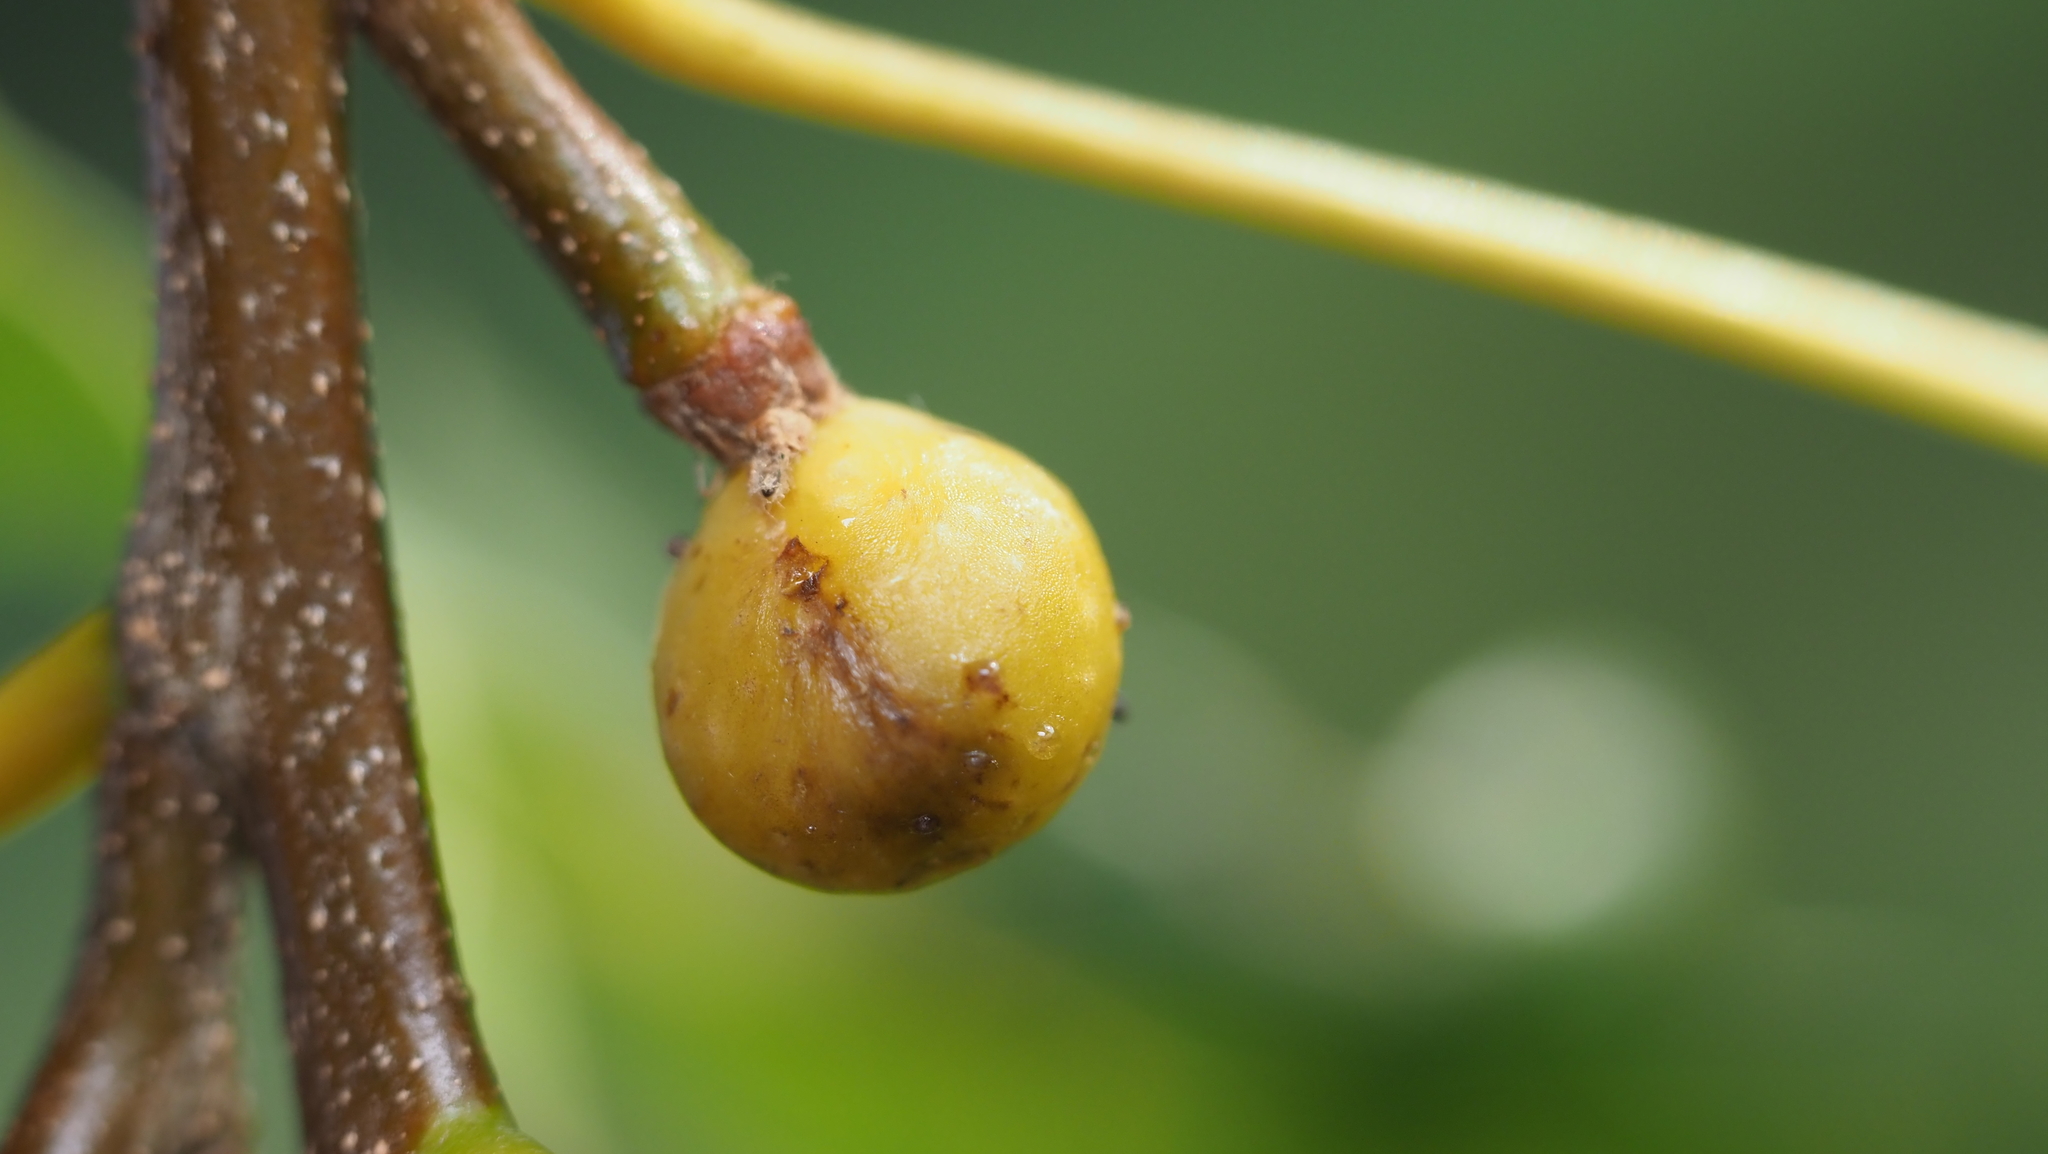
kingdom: Animalia
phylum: Arthropoda
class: Insecta
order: Hymenoptera
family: Cynipidae
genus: Callirhytis
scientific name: Callirhytis
